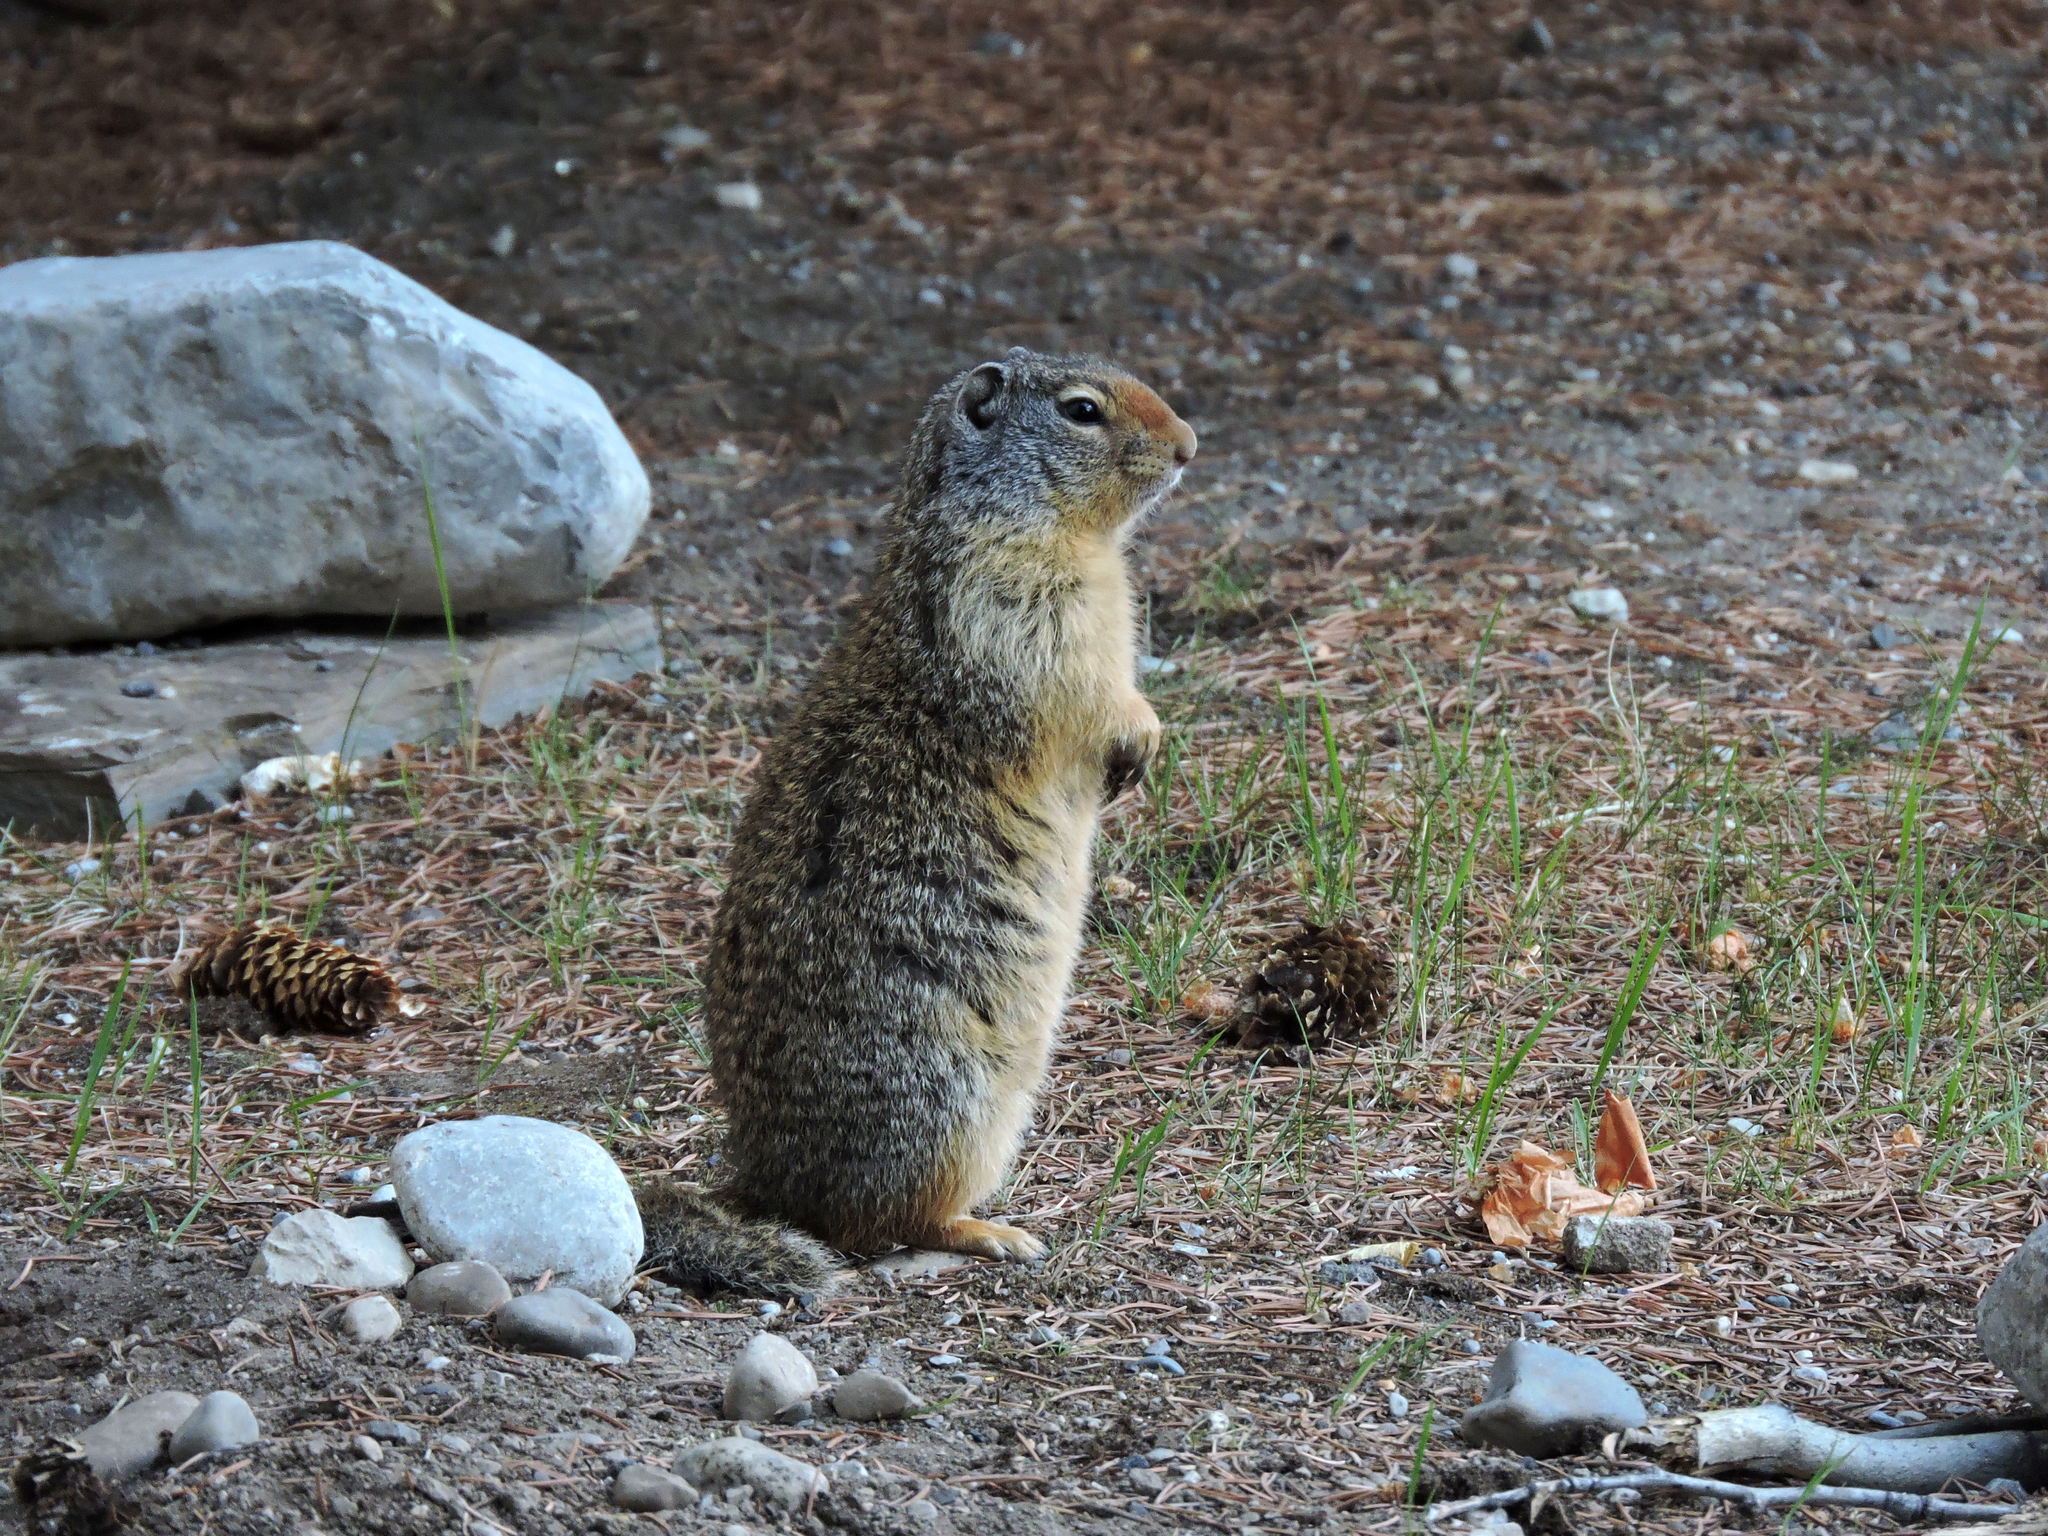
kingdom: Animalia
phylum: Chordata
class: Mammalia
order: Rodentia
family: Sciuridae
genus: Urocitellus
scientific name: Urocitellus columbianus
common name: Columbian ground squirrel
